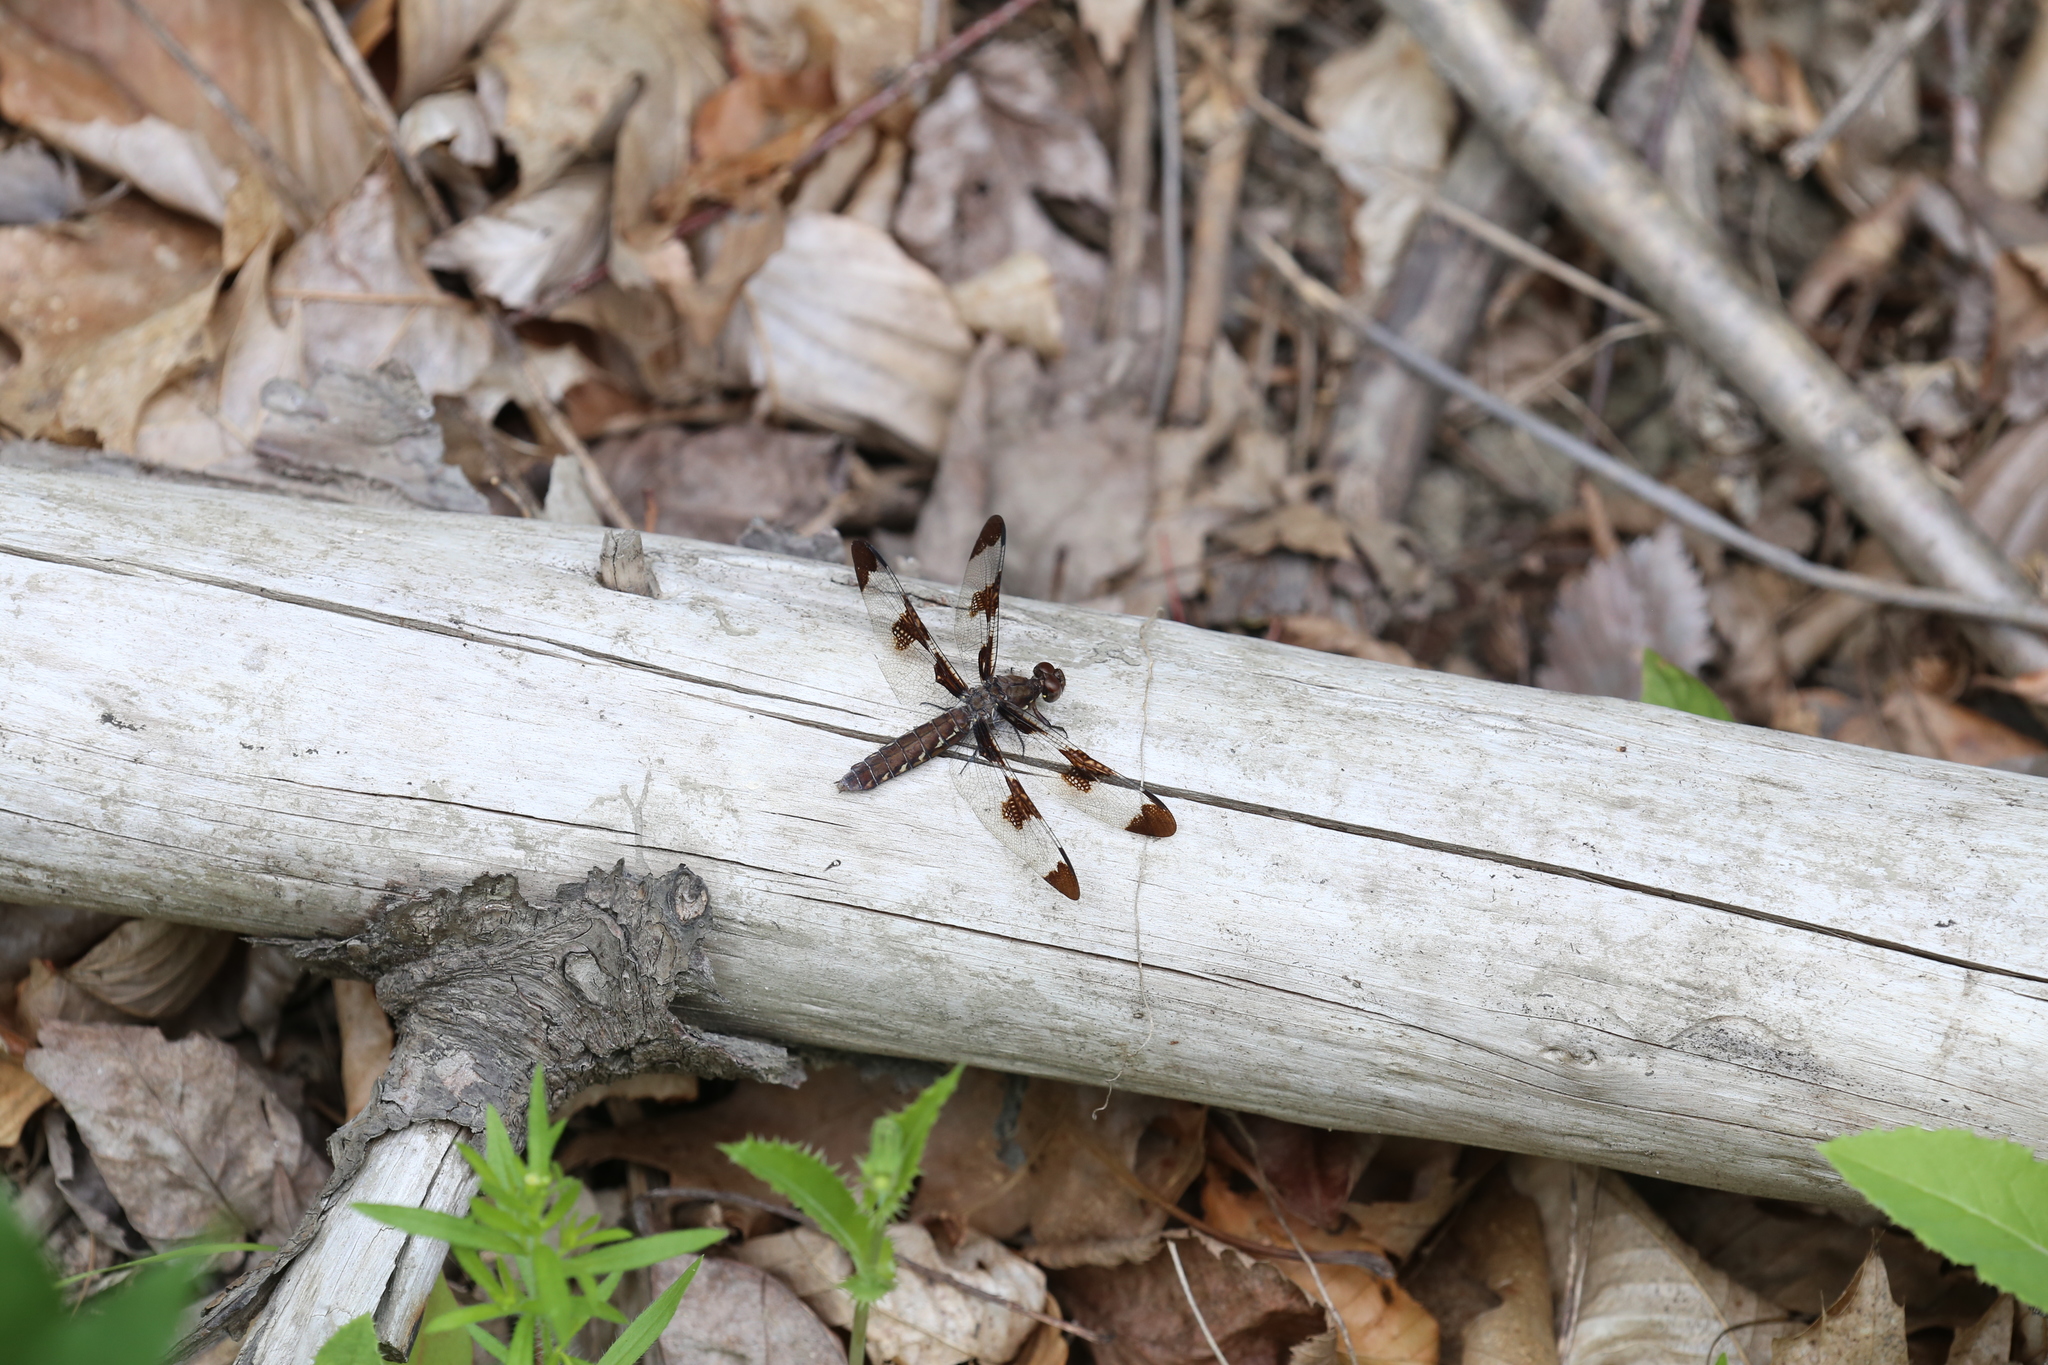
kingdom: Animalia
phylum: Arthropoda
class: Insecta
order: Odonata
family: Libellulidae
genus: Plathemis
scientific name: Plathemis lydia
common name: Common whitetail
